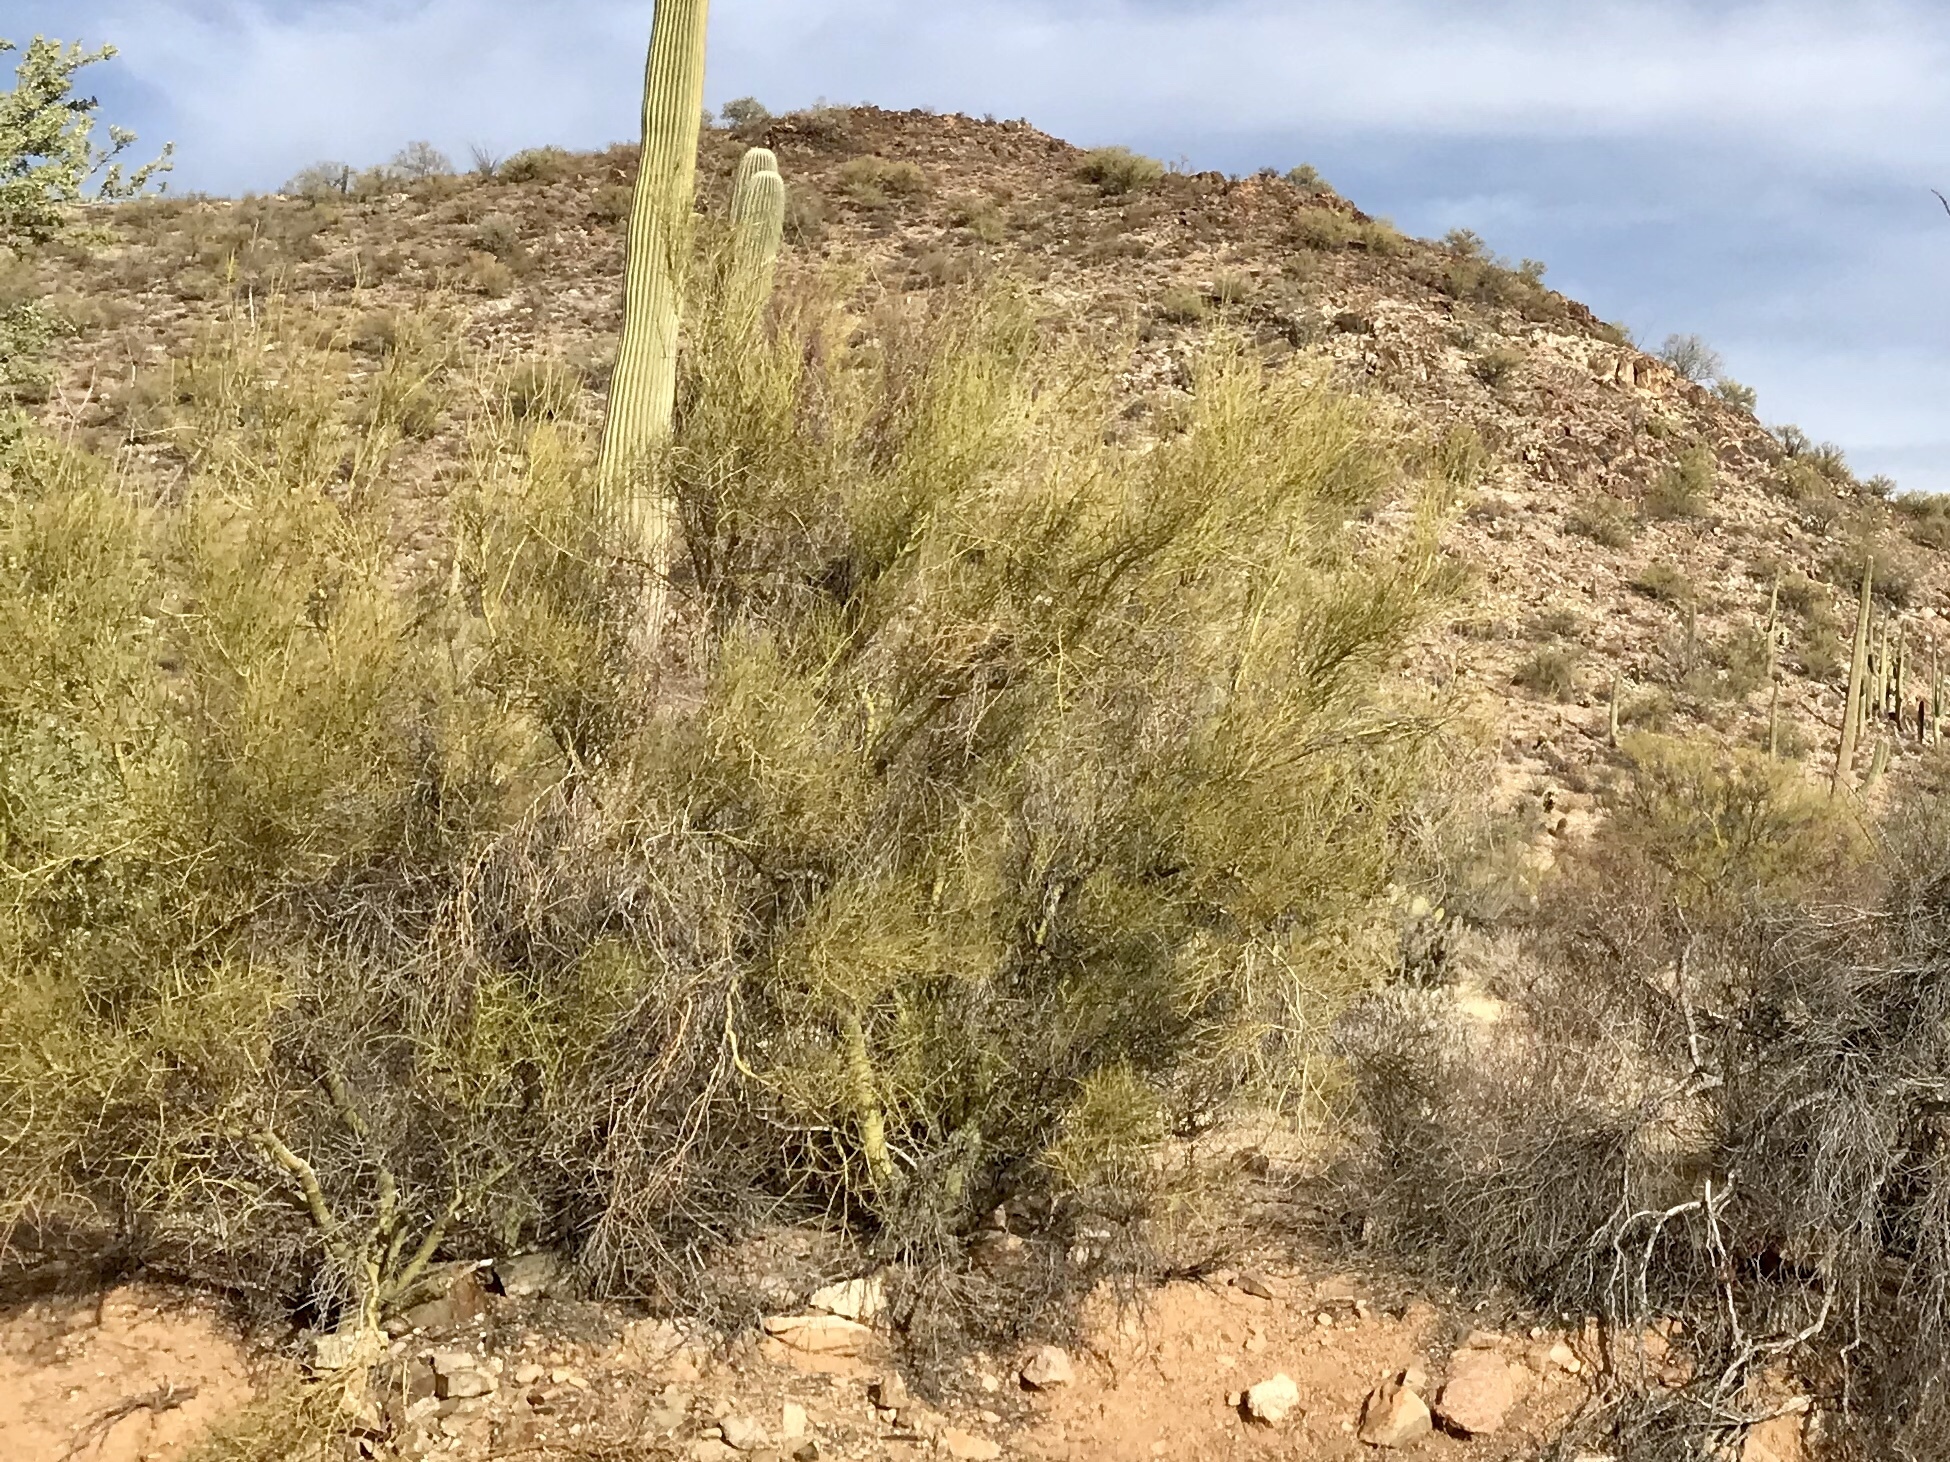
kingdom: Plantae
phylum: Tracheophyta
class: Magnoliopsida
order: Fabales
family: Fabaceae
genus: Parkinsonia
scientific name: Parkinsonia microphylla
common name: Yellow paloverde
